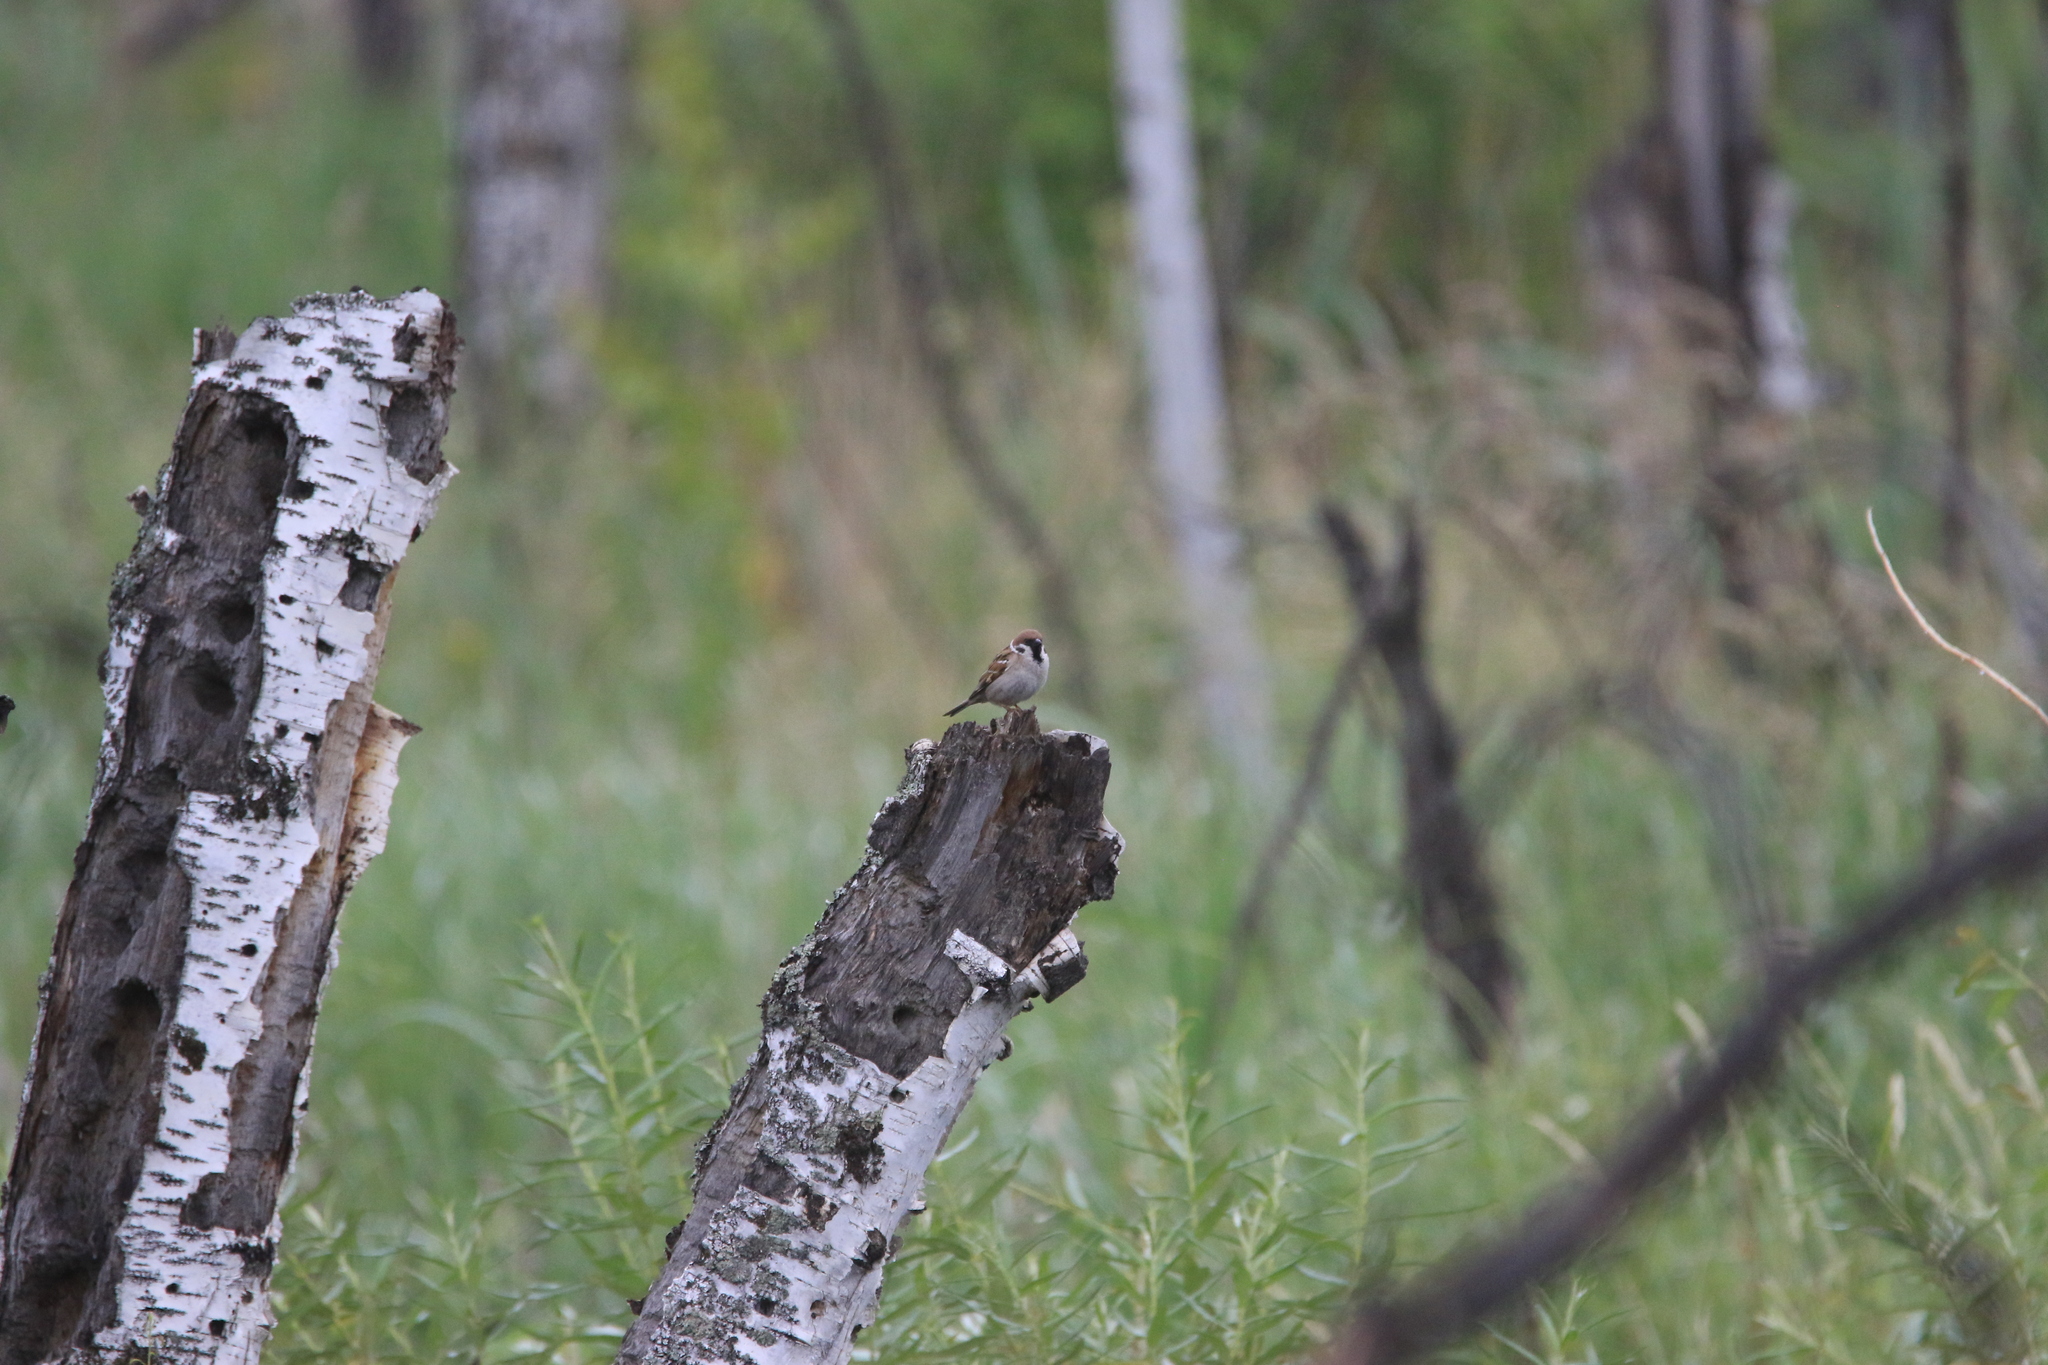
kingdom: Animalia
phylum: Chordata
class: Aves
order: Passeriformes
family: Passeridae
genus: Passer
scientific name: Passer montanus
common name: Eurasian tree sparrow
